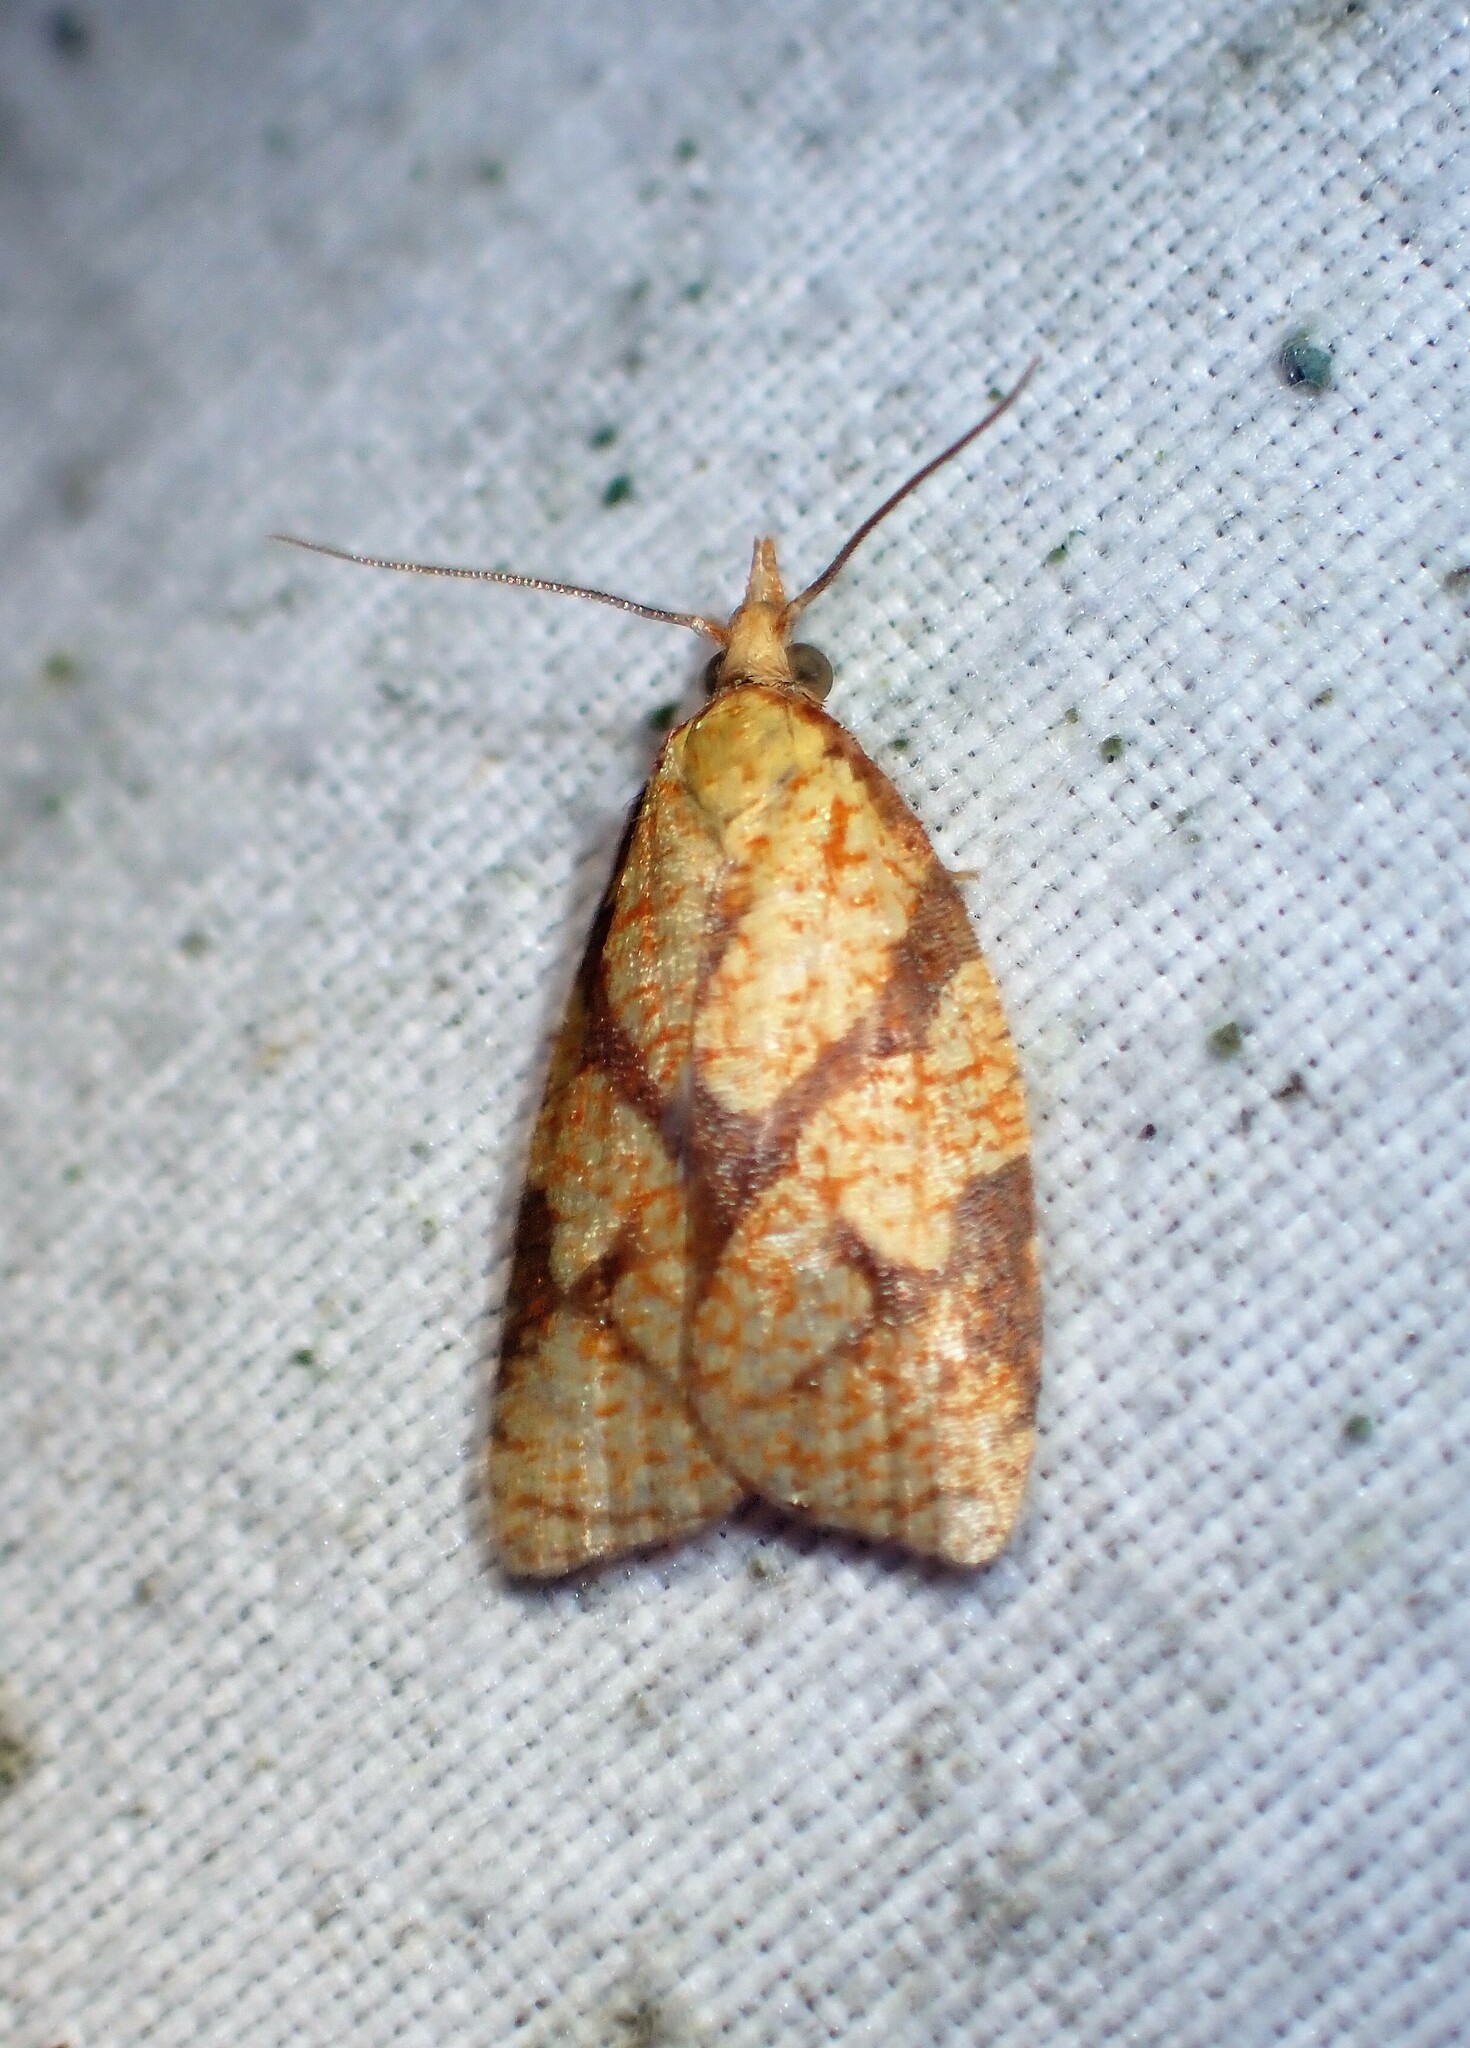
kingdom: Animalia
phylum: Arthropoda
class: Insecta
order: Lepidoptera
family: Tortricidae
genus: Cenopis
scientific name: Cenopis reticulatana
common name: Reticulated fruitworm moth
